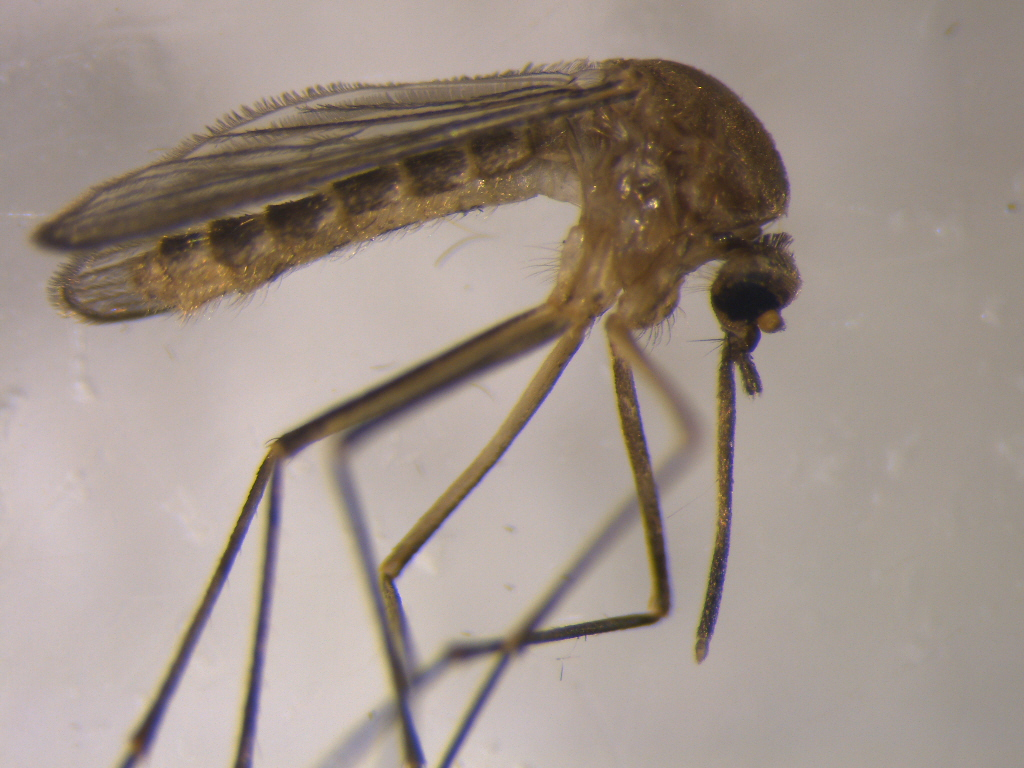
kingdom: Animalia
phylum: Arthropoda
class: Insecta
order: Diptera
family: Culicidae
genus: Culex
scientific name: Culex quinquefasciatus
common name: Southern house mosquito
